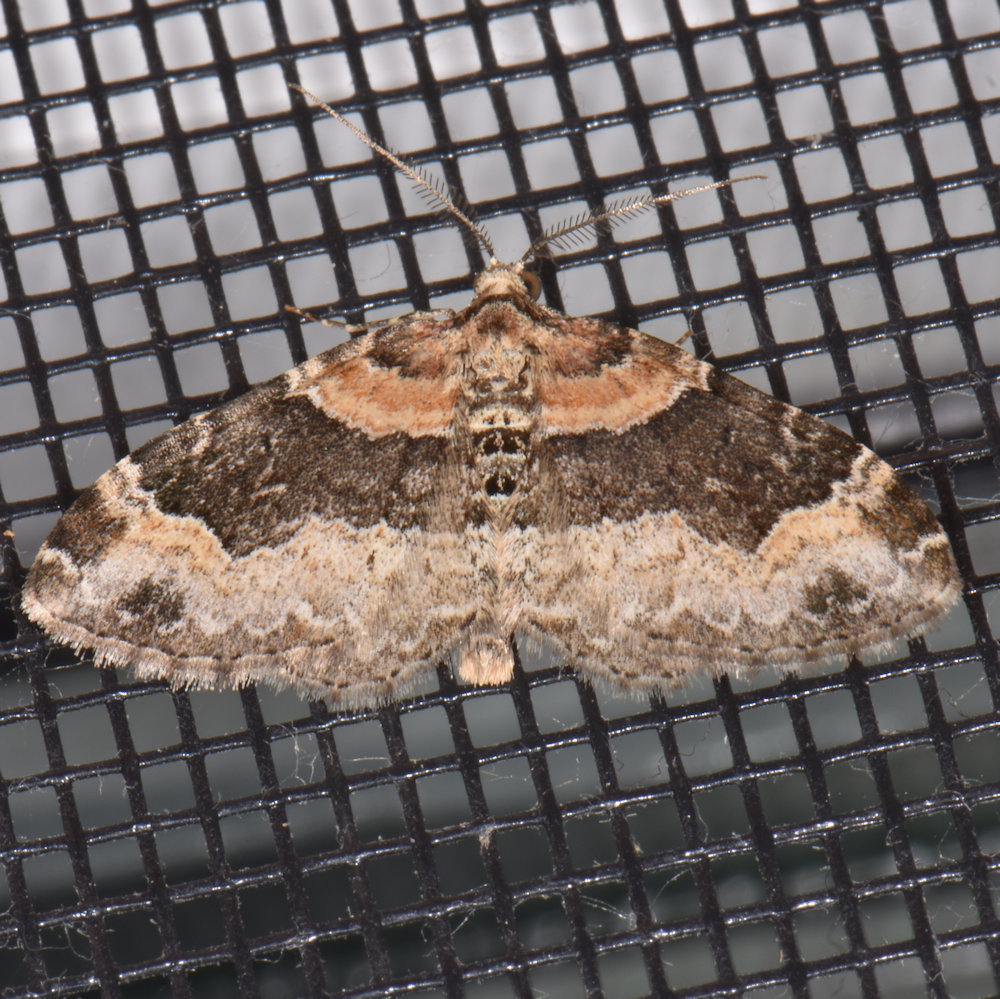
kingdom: Animalia
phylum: Arthropoda
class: Insecta
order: Lepidoptera
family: Geometridae
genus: Xanthorhoe
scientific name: Xanthorhoe ferrugata
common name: Dark-barred twin-spot carpet
